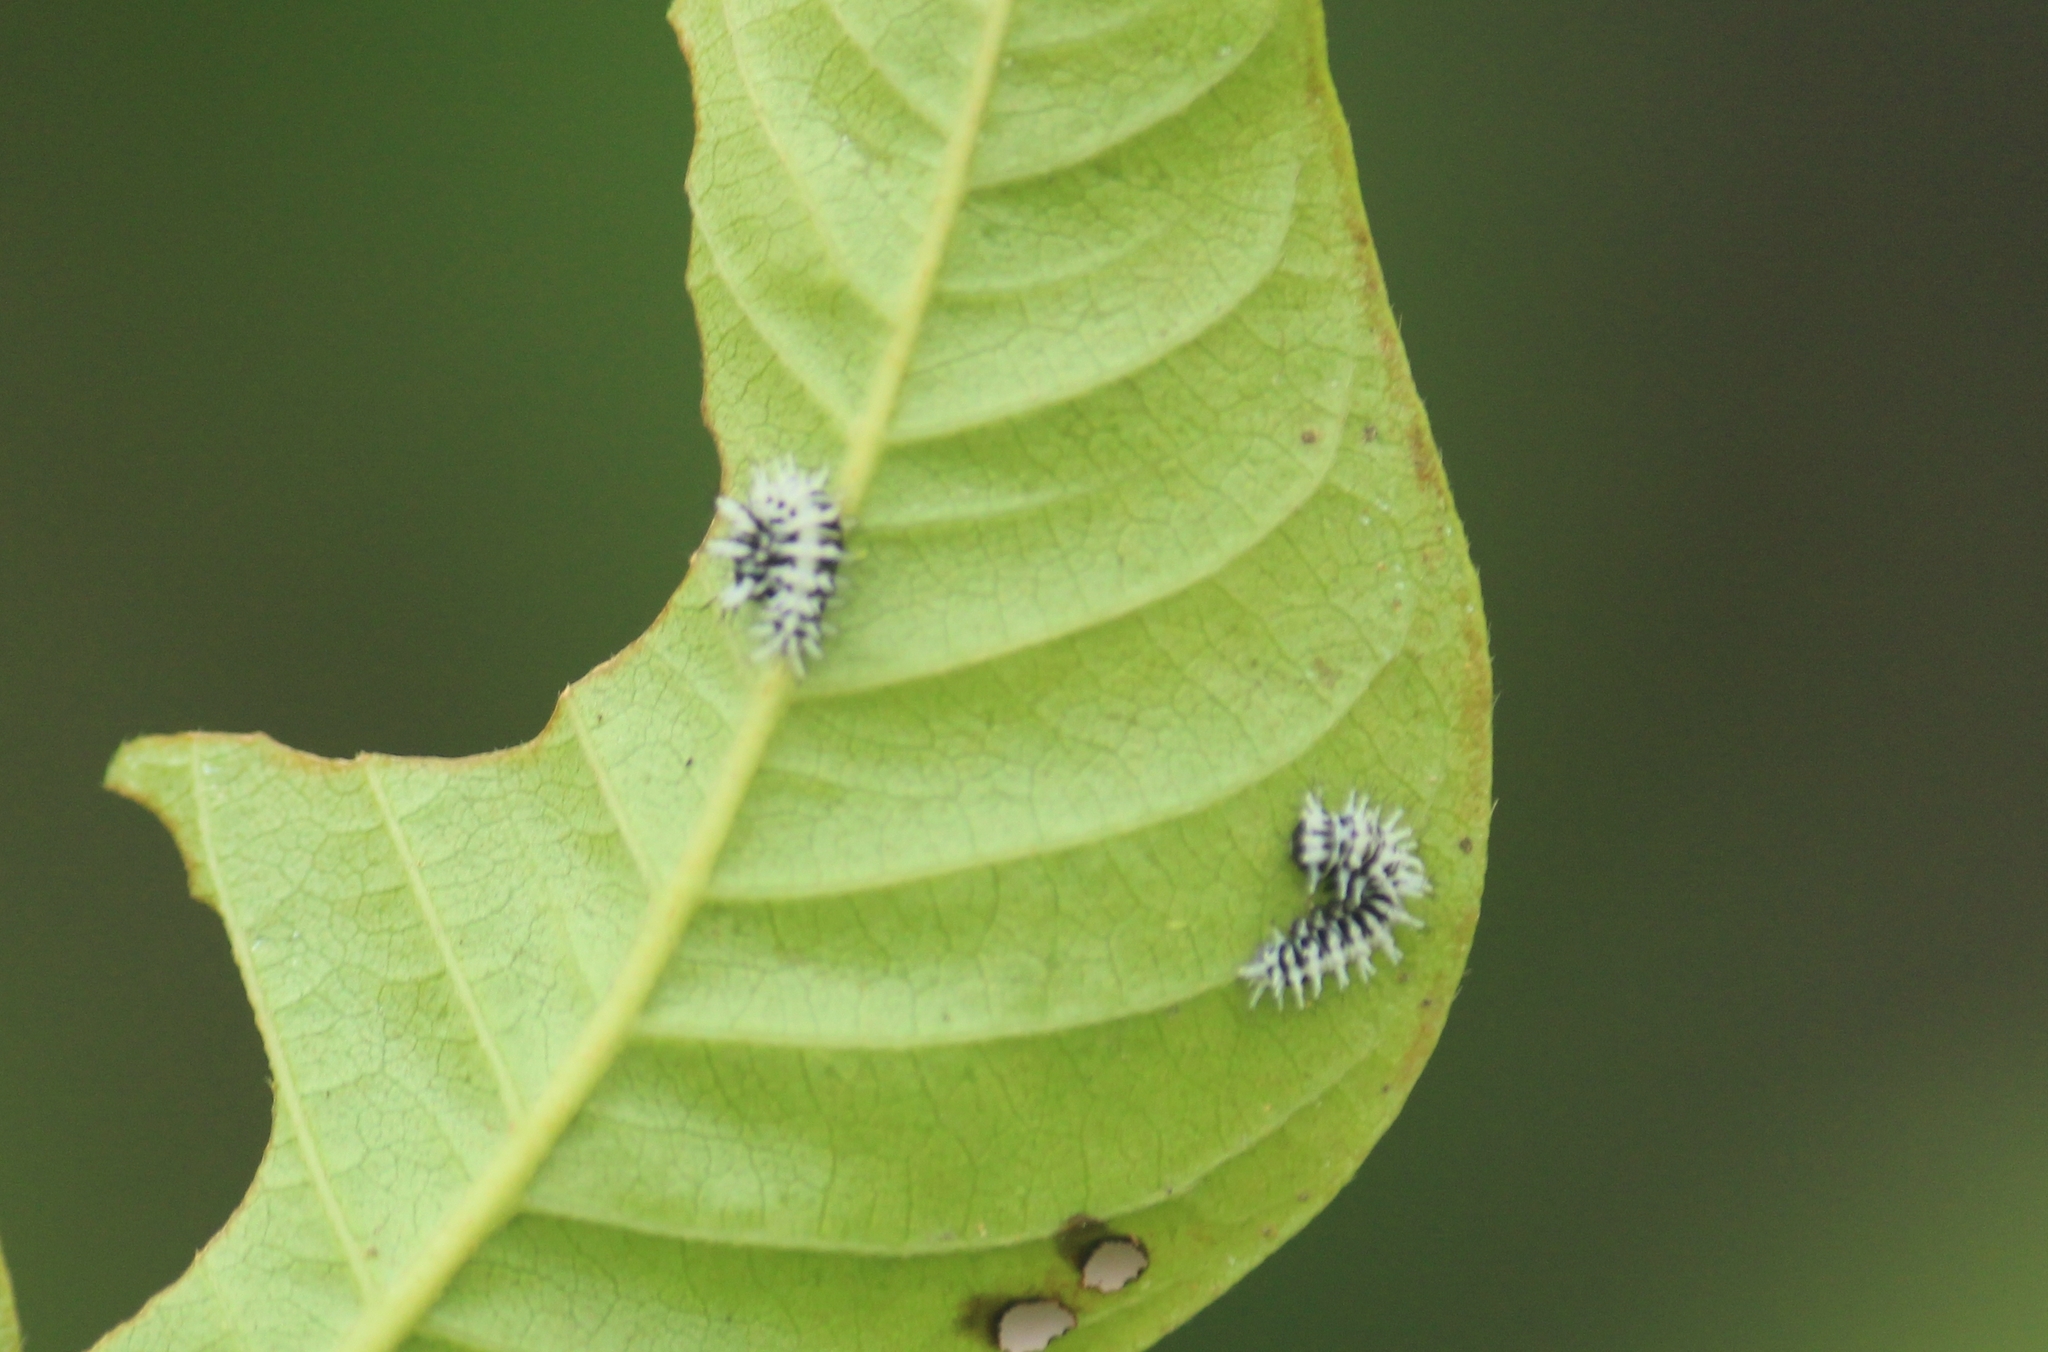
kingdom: Animalia
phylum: Arthropoda
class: Insecta
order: Lepidoptera
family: Saturniidae
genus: Attacus
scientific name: Attacus taprobanis
